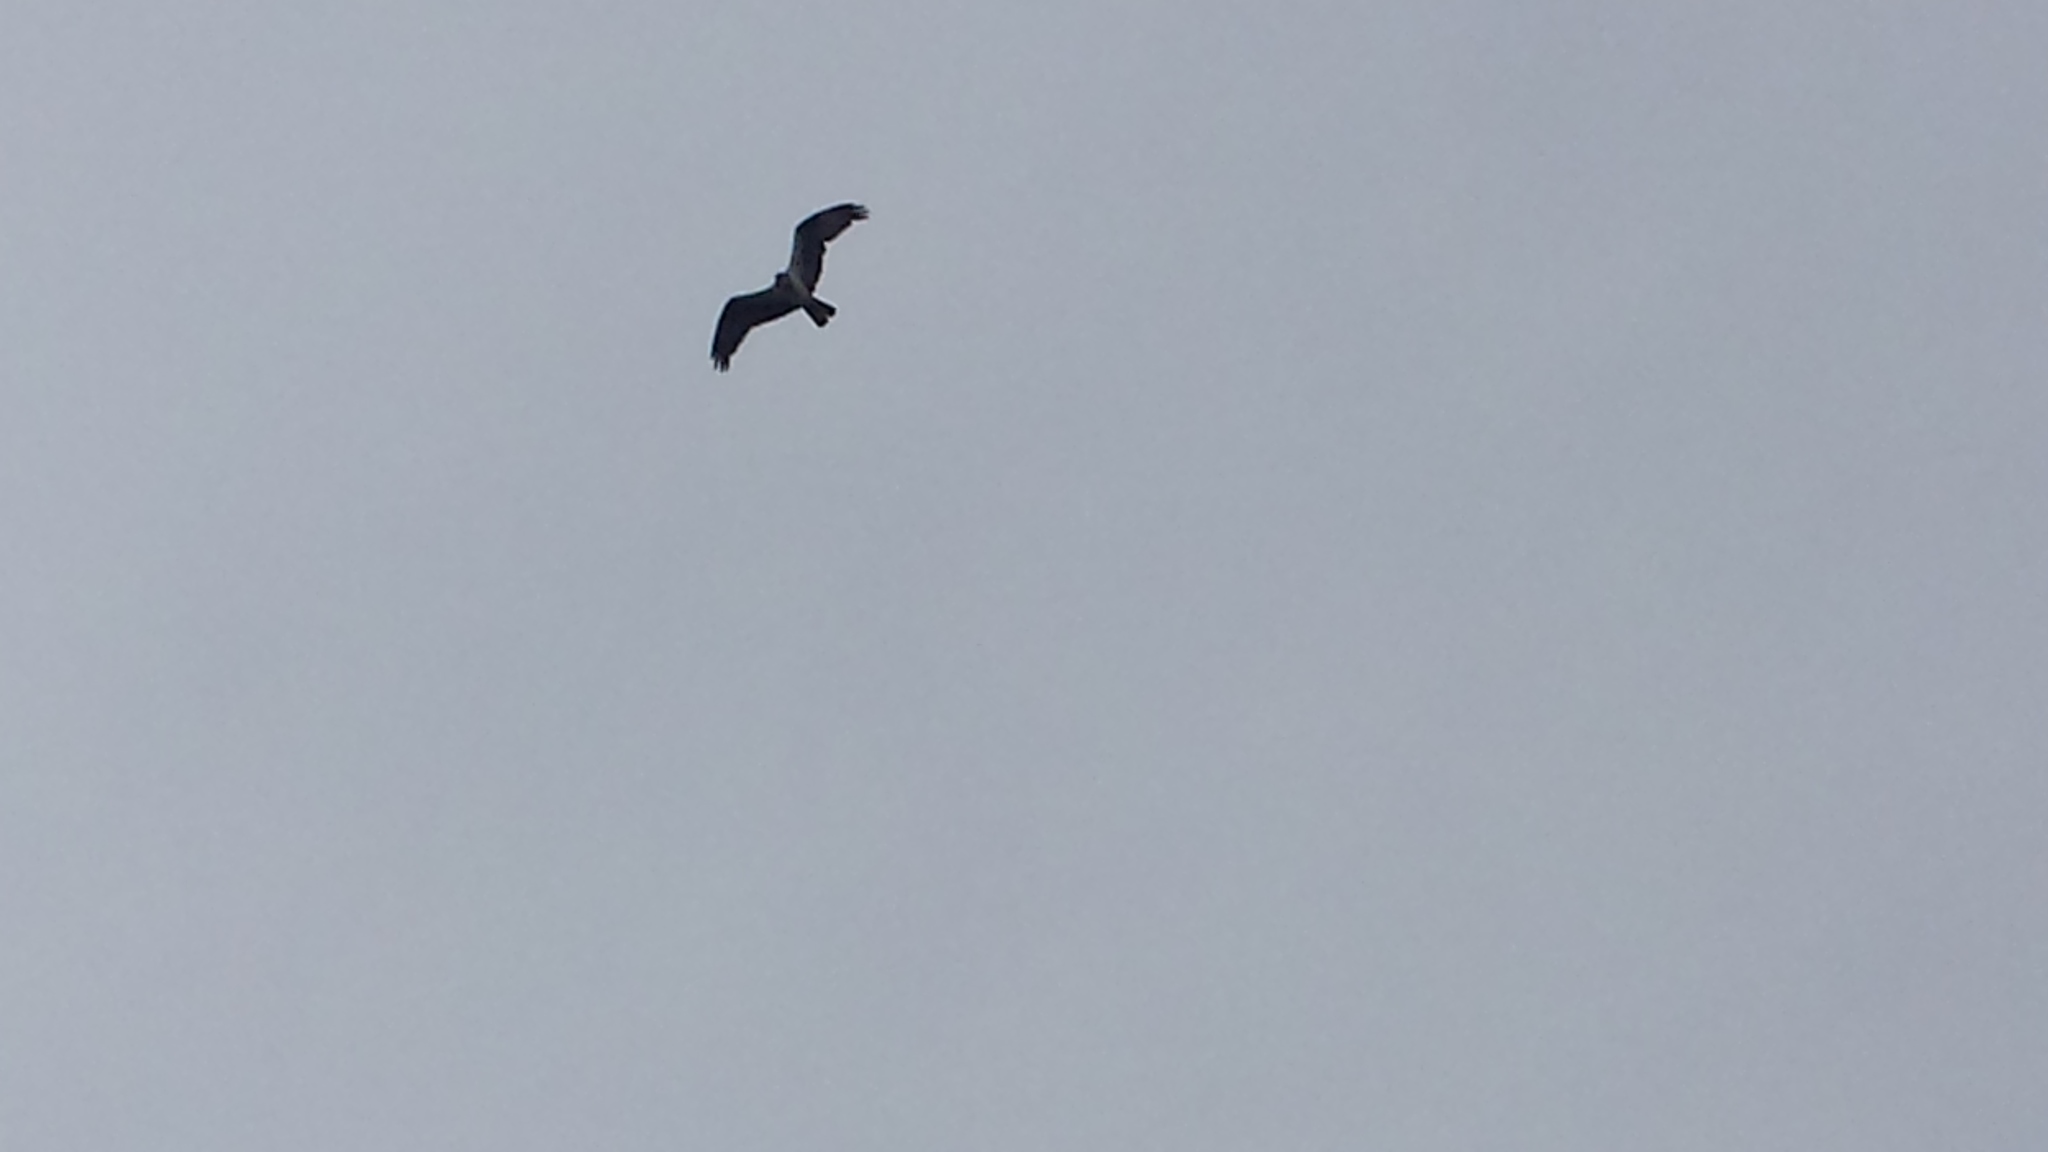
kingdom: Animalia
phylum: Chordata
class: Aves
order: Accipitriformes
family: Pandionidae
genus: Pandion
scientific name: Pandion haliaetus
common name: Osprey
